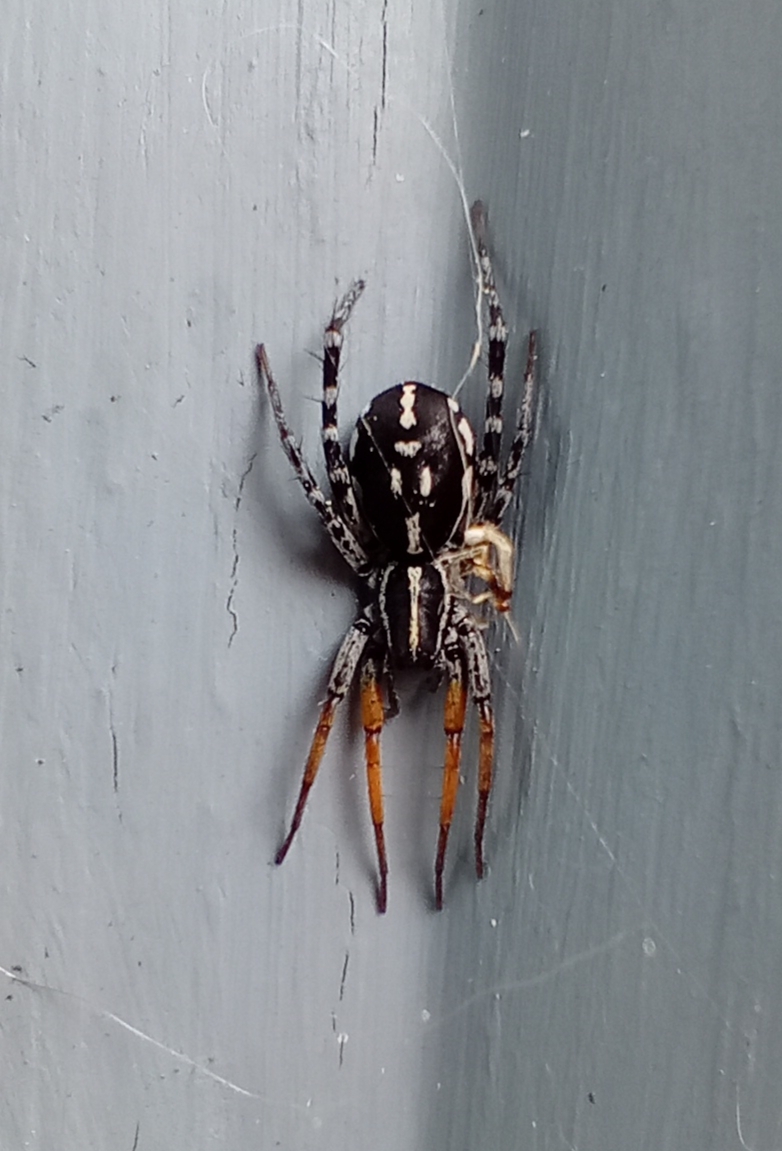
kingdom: Animalia
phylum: Arthropoda
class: Arachnida
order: Araneae
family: Corinnidae
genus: Nyssus
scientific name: Nyssus coloripes
